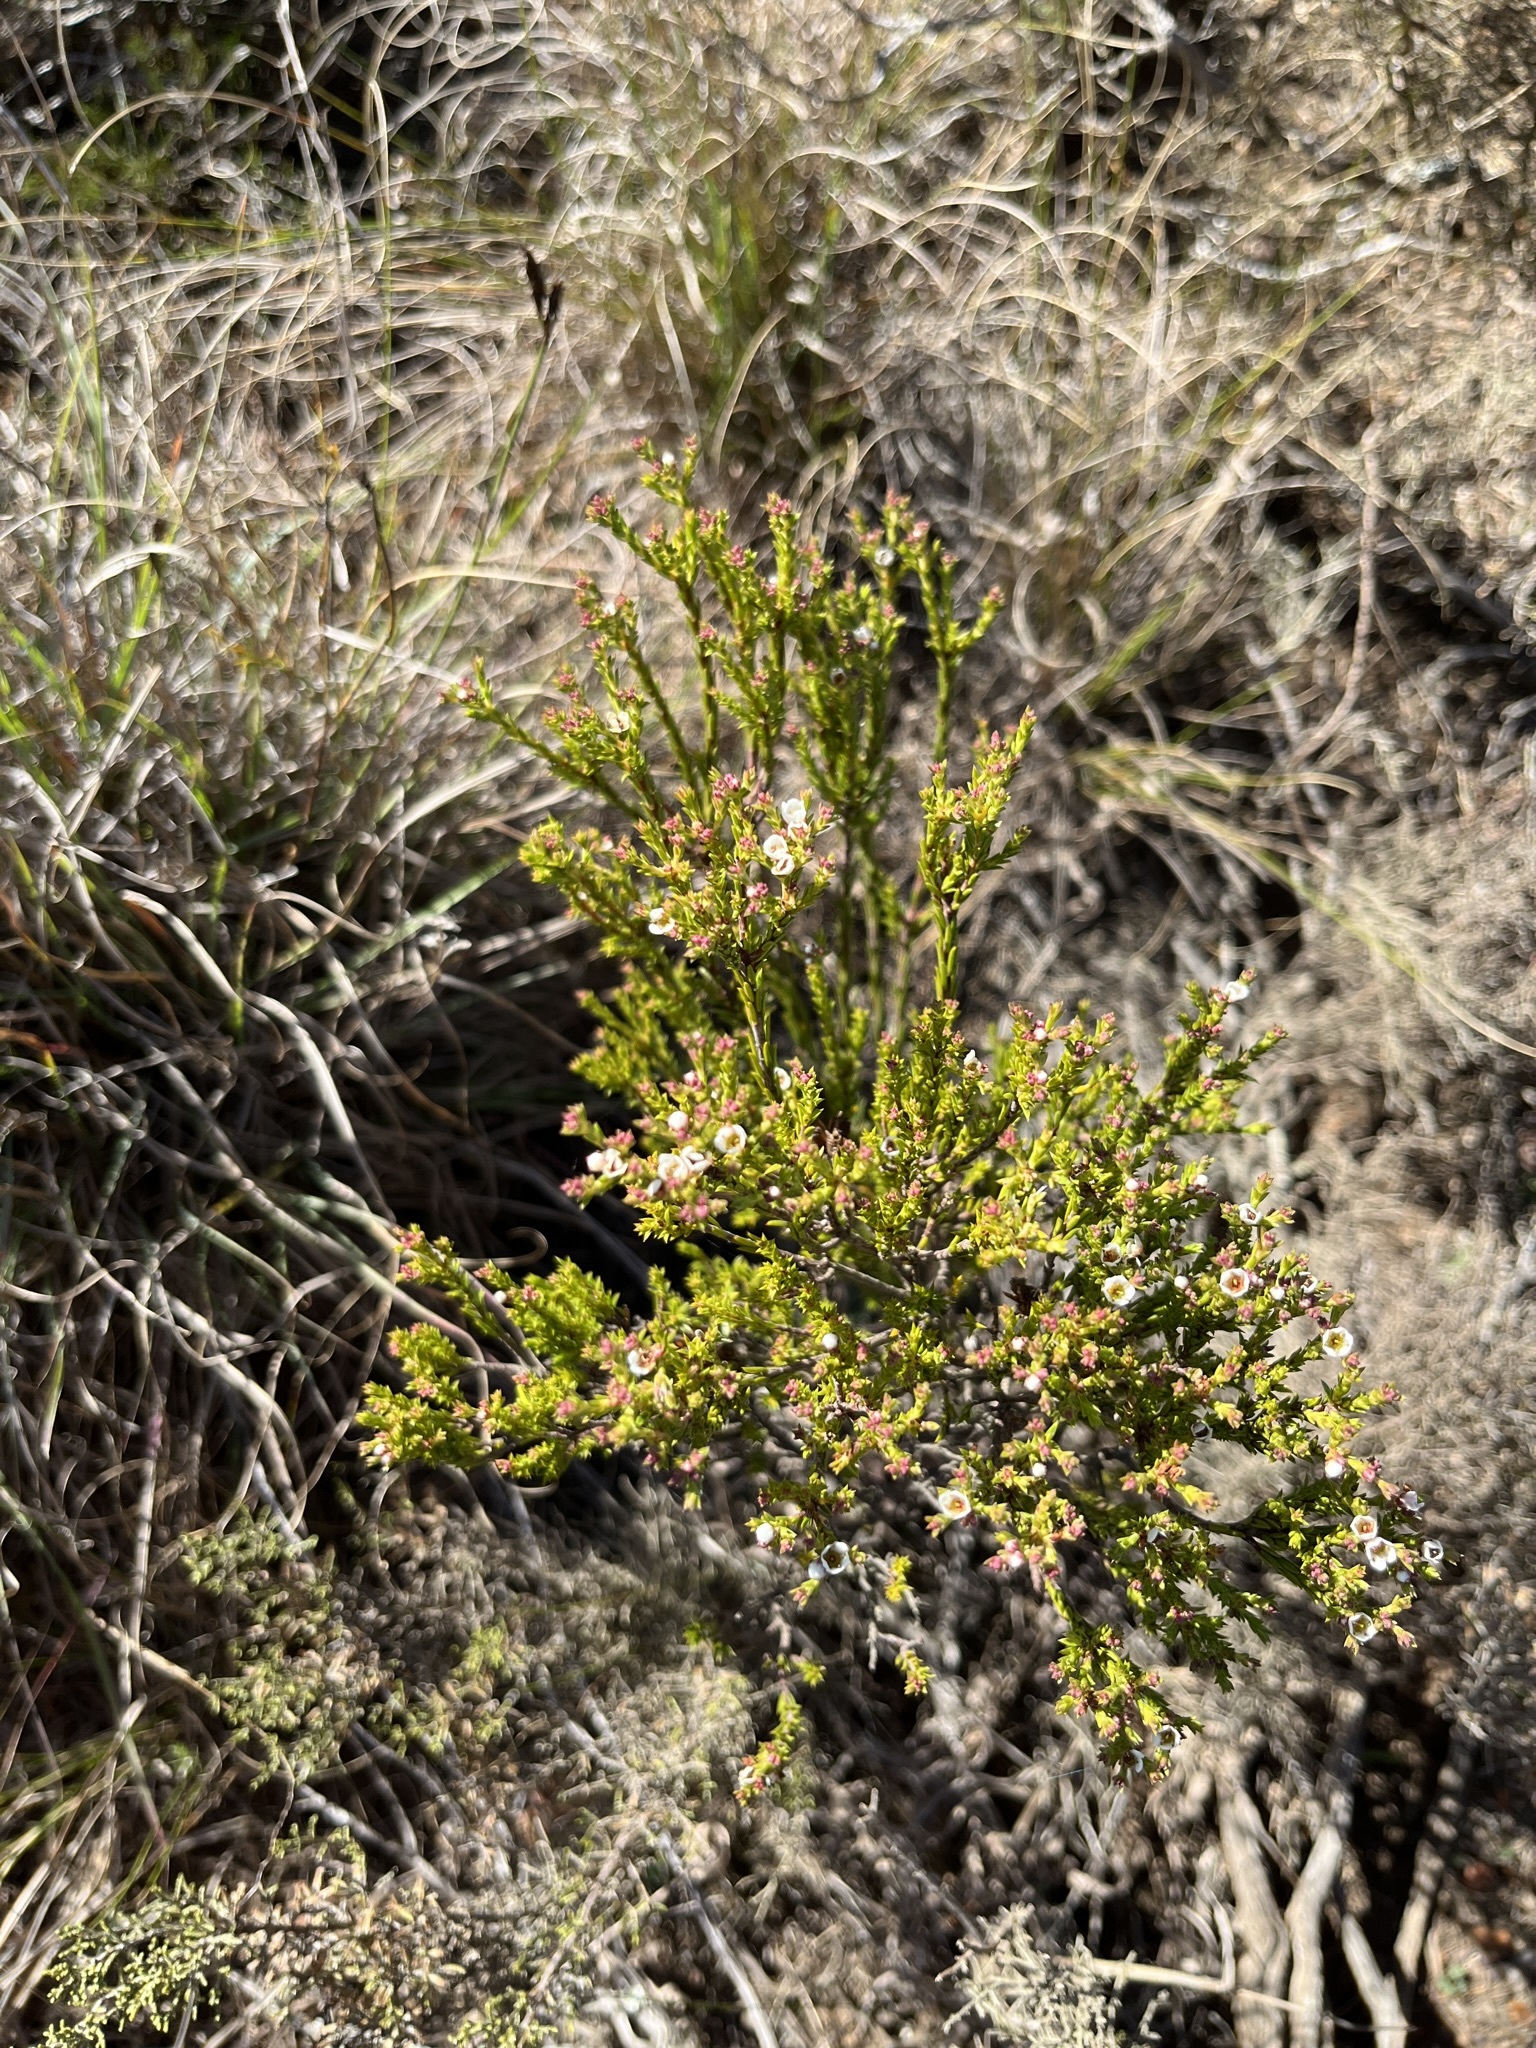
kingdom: Plantae
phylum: Tracheophyta
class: Magnoliopsida
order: Sapindales
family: Rutaceae
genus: Diosma
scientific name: Diosma passerinoides
